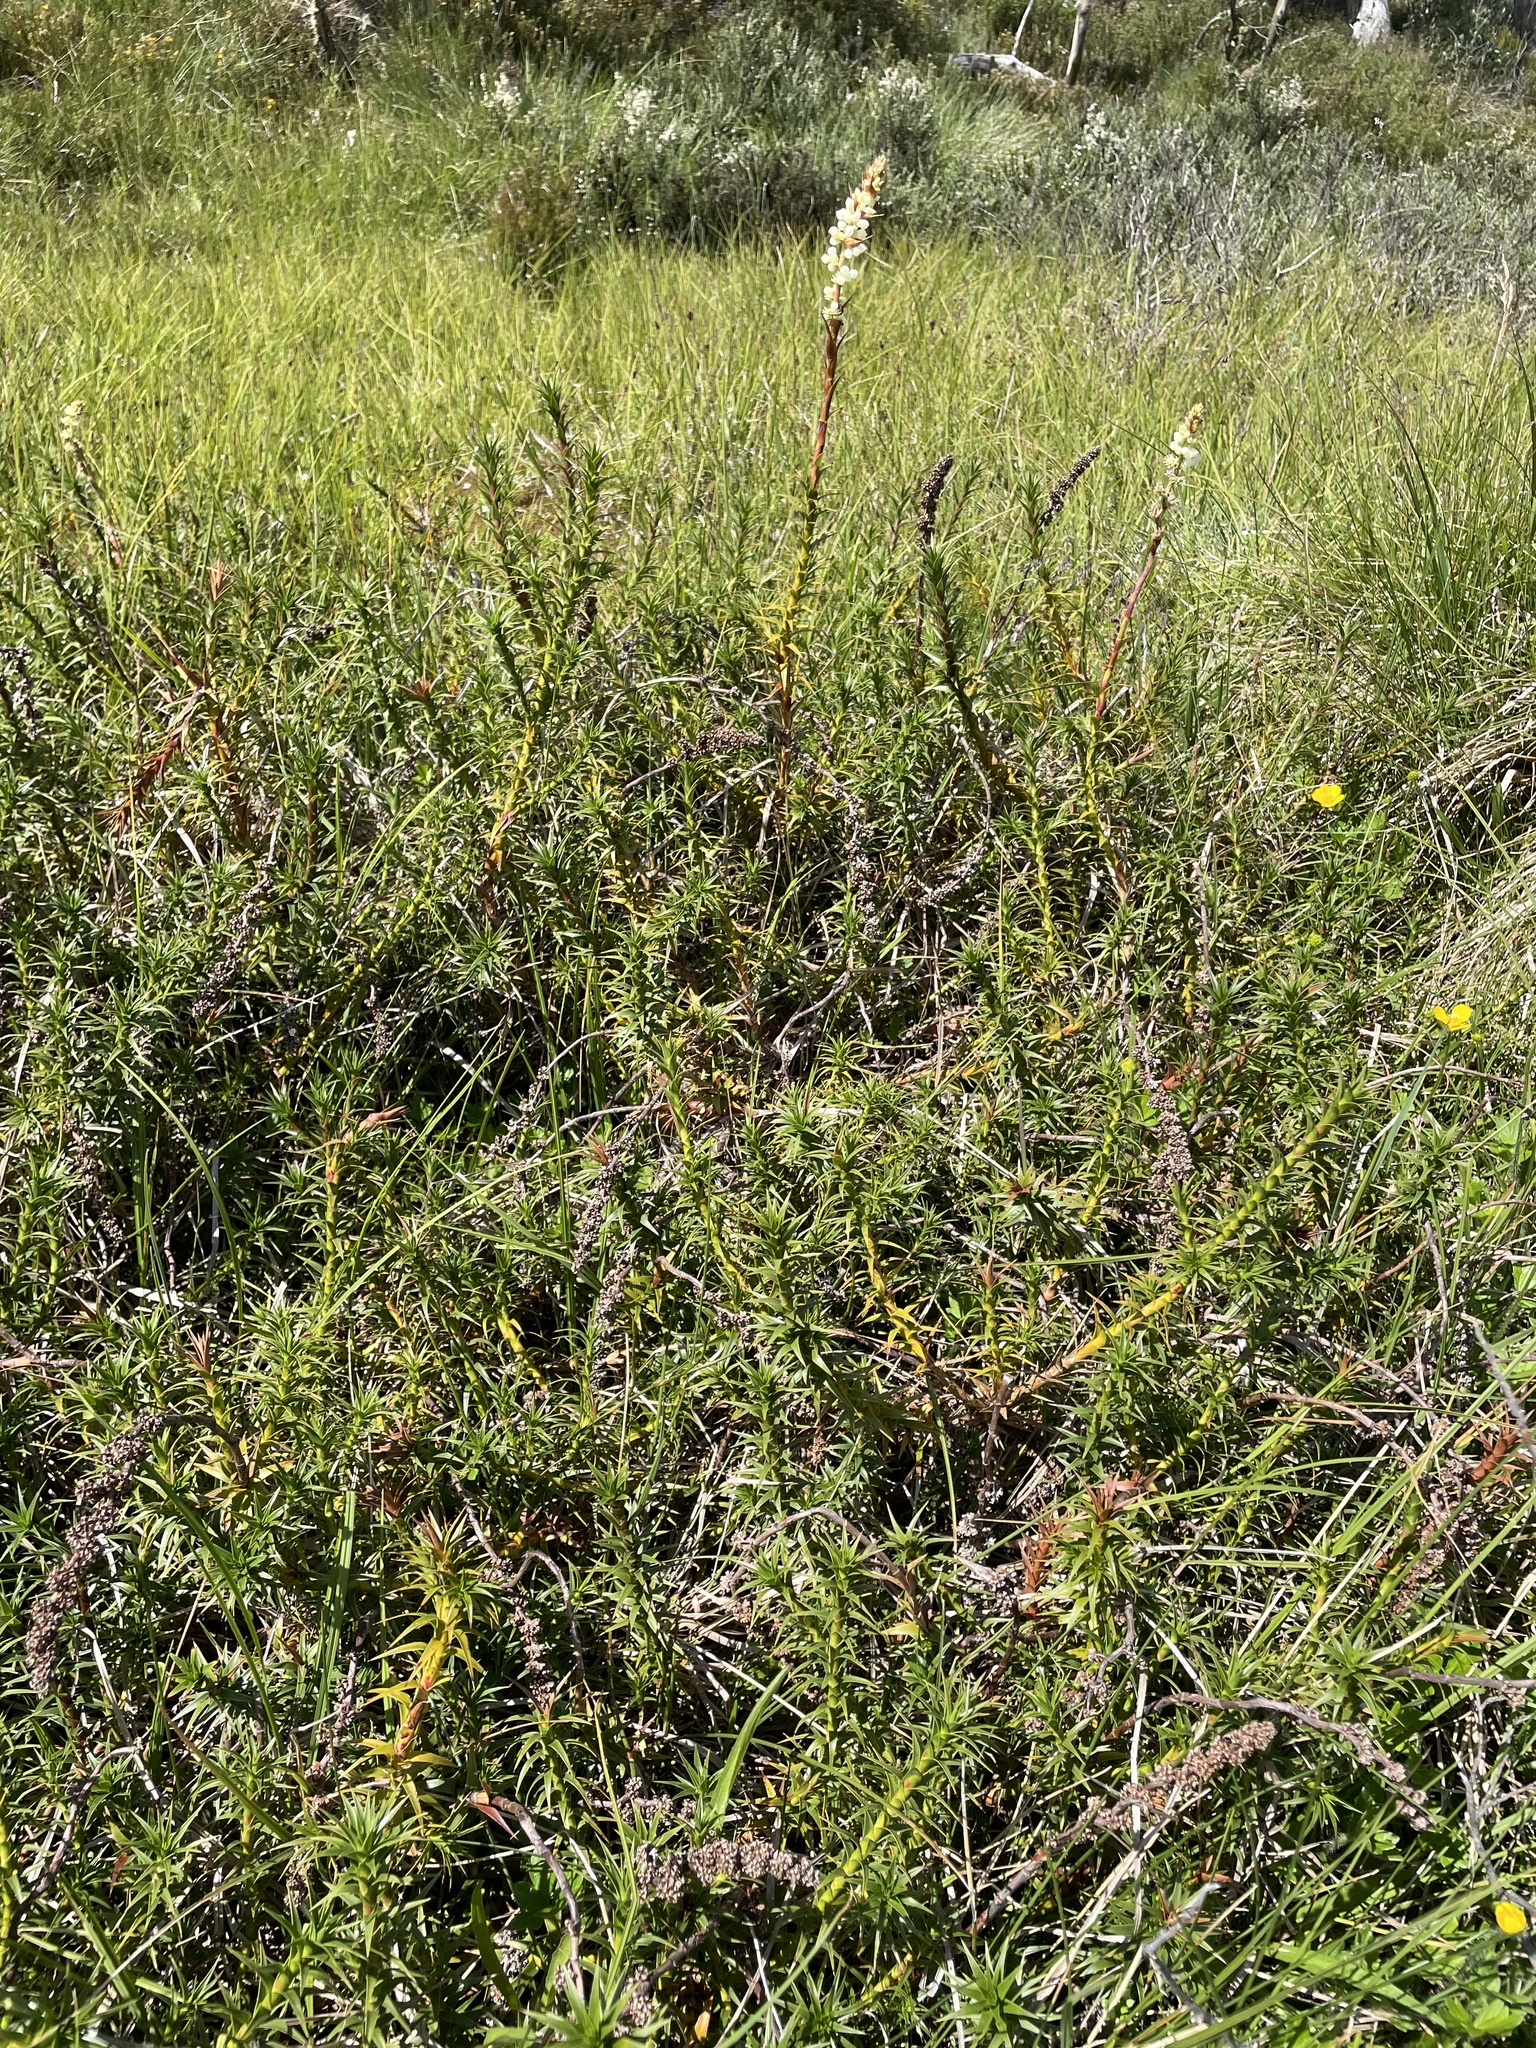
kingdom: Plantae
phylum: Tracheophyta
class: Magnoliopsida
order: Ericales
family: Ericaceae
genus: Dracophyllum
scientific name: Dracophyllum continentis
